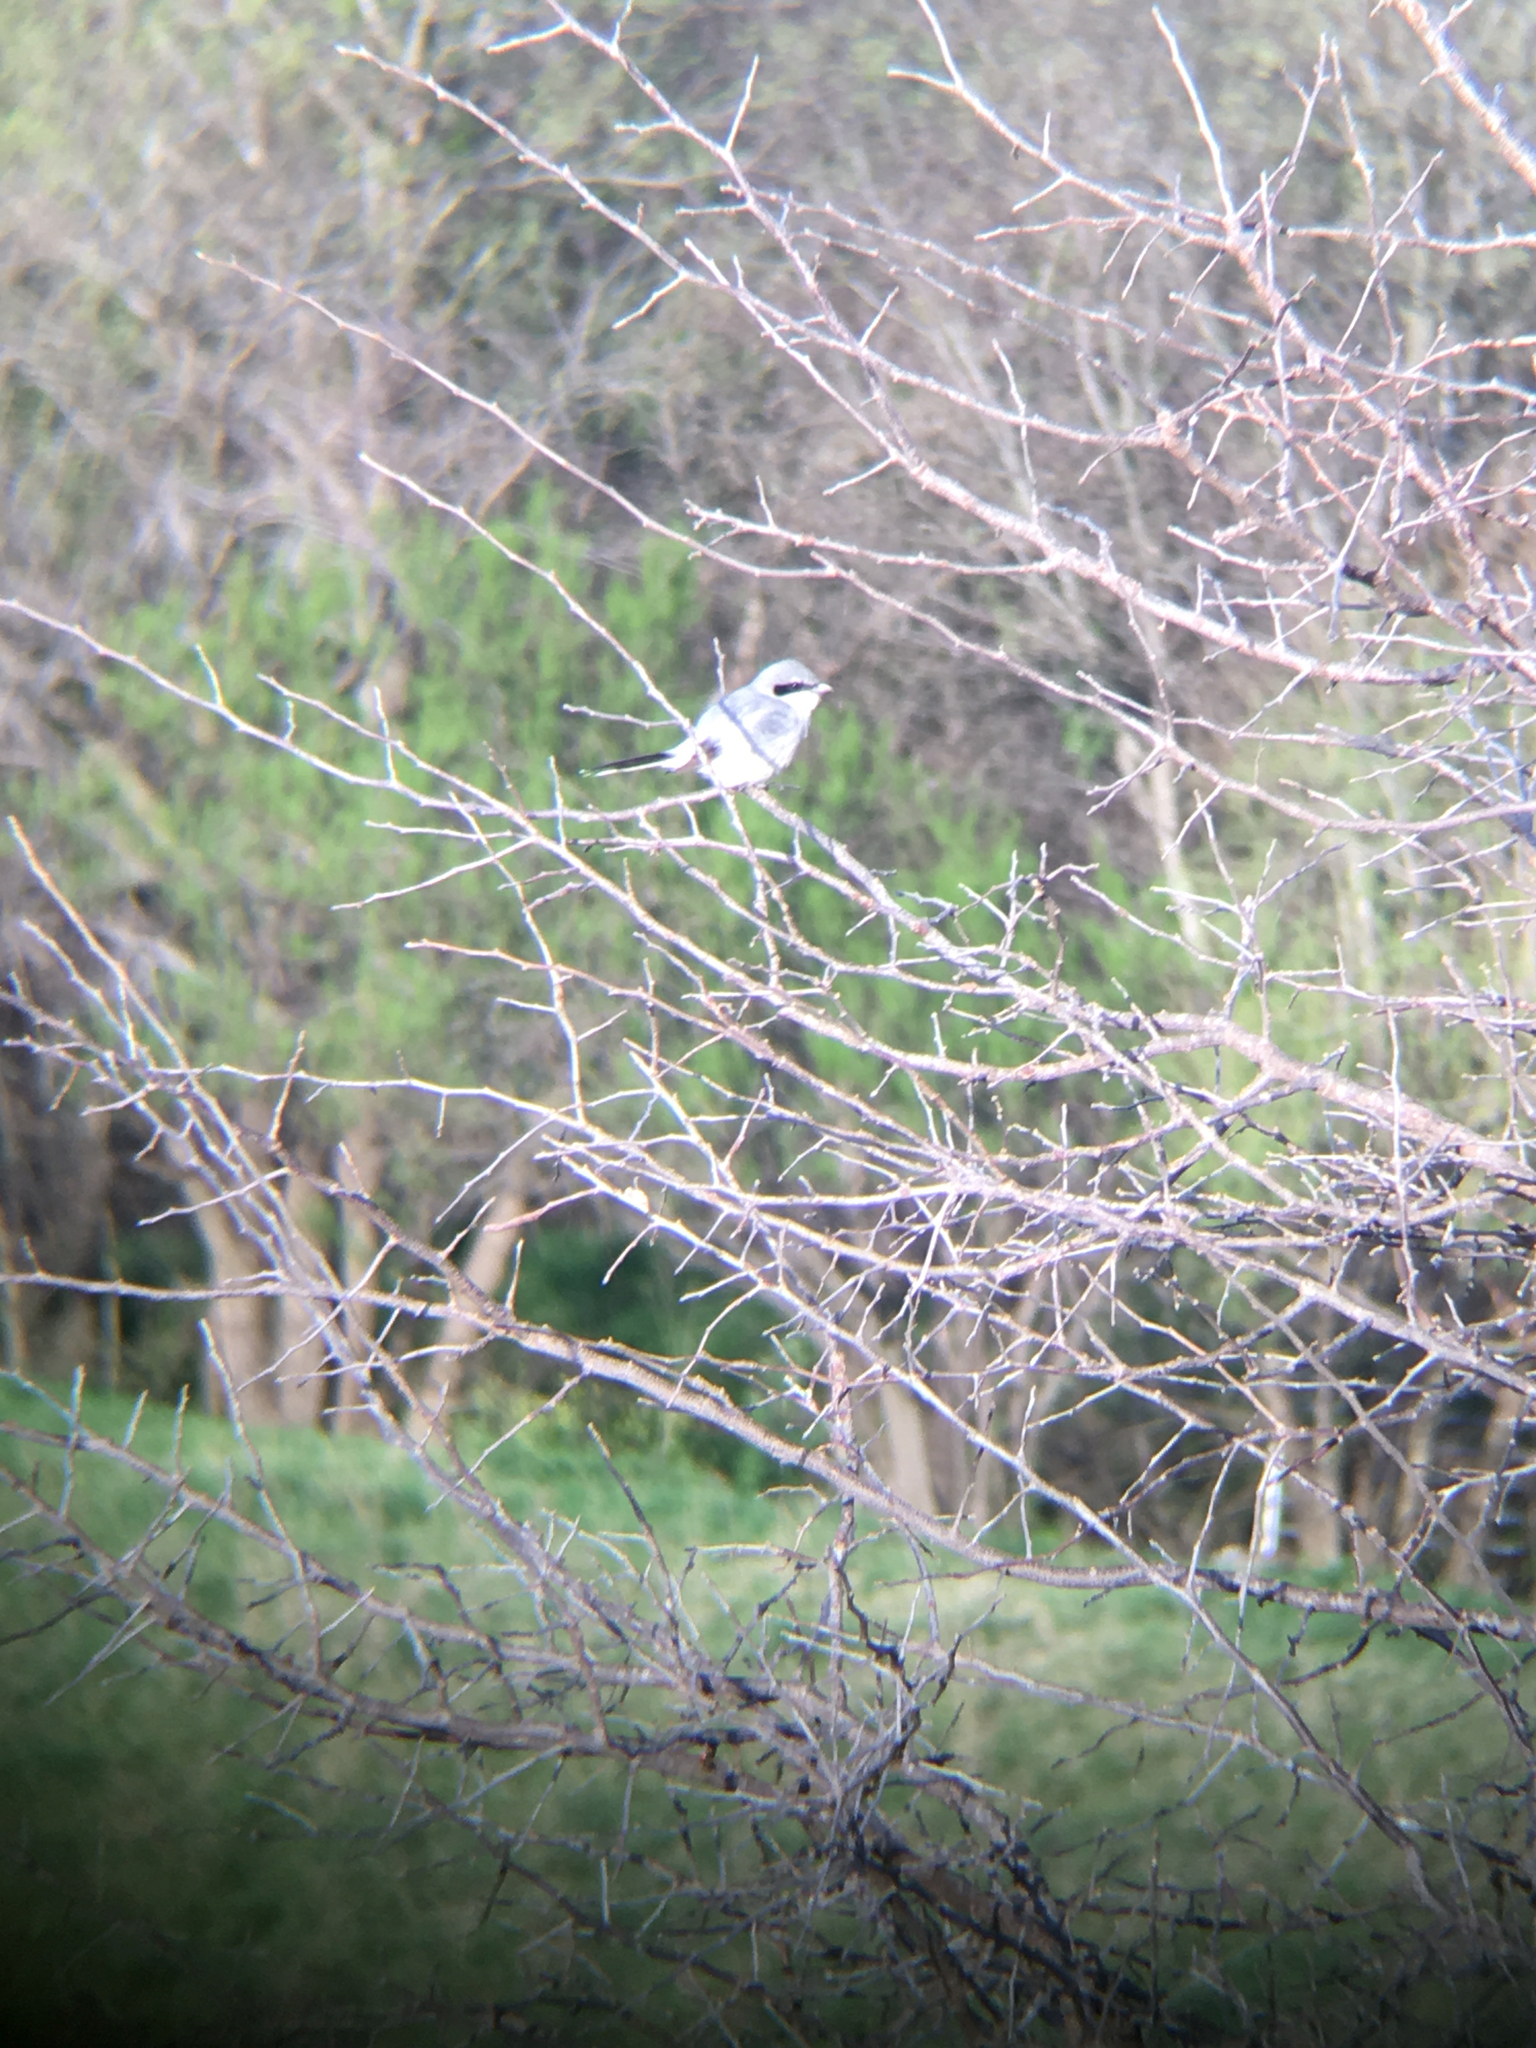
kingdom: Animalia
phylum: Chordata
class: Aves
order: Passeriformes
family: Laniidae
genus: Lanius
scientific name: Lanius ludovicianus
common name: Loggerhead shrike
